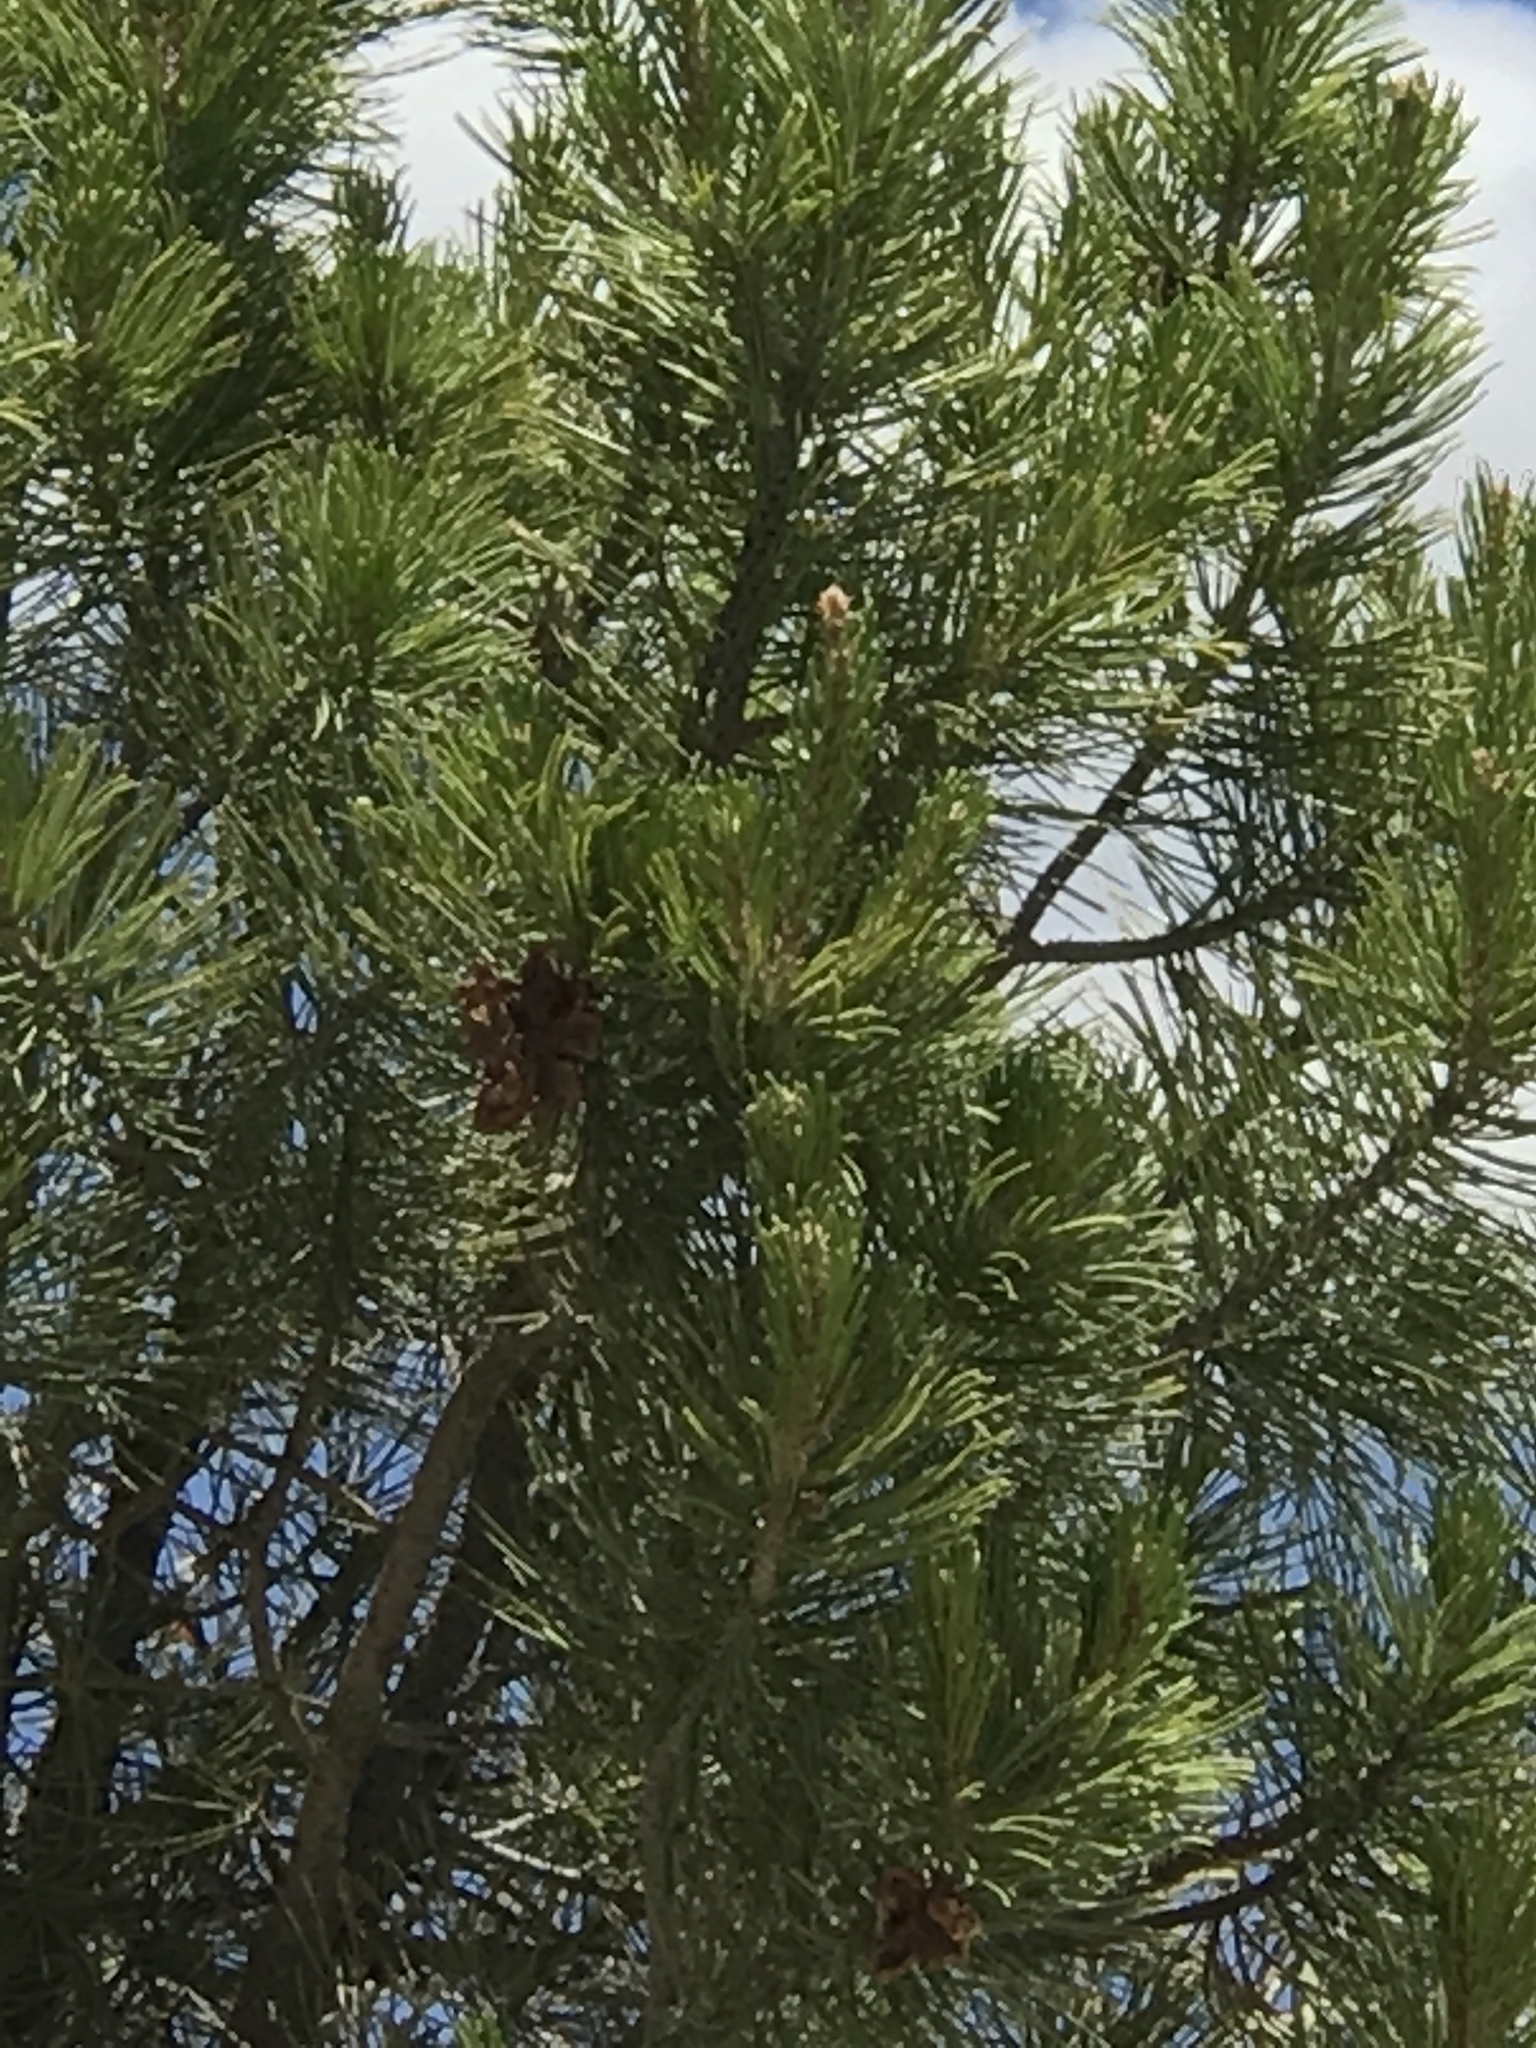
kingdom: Plantae
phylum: Tracheophyta
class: Pinopsida
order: Pinales
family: Pinaceae
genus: Pinus
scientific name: Pinus discolor
